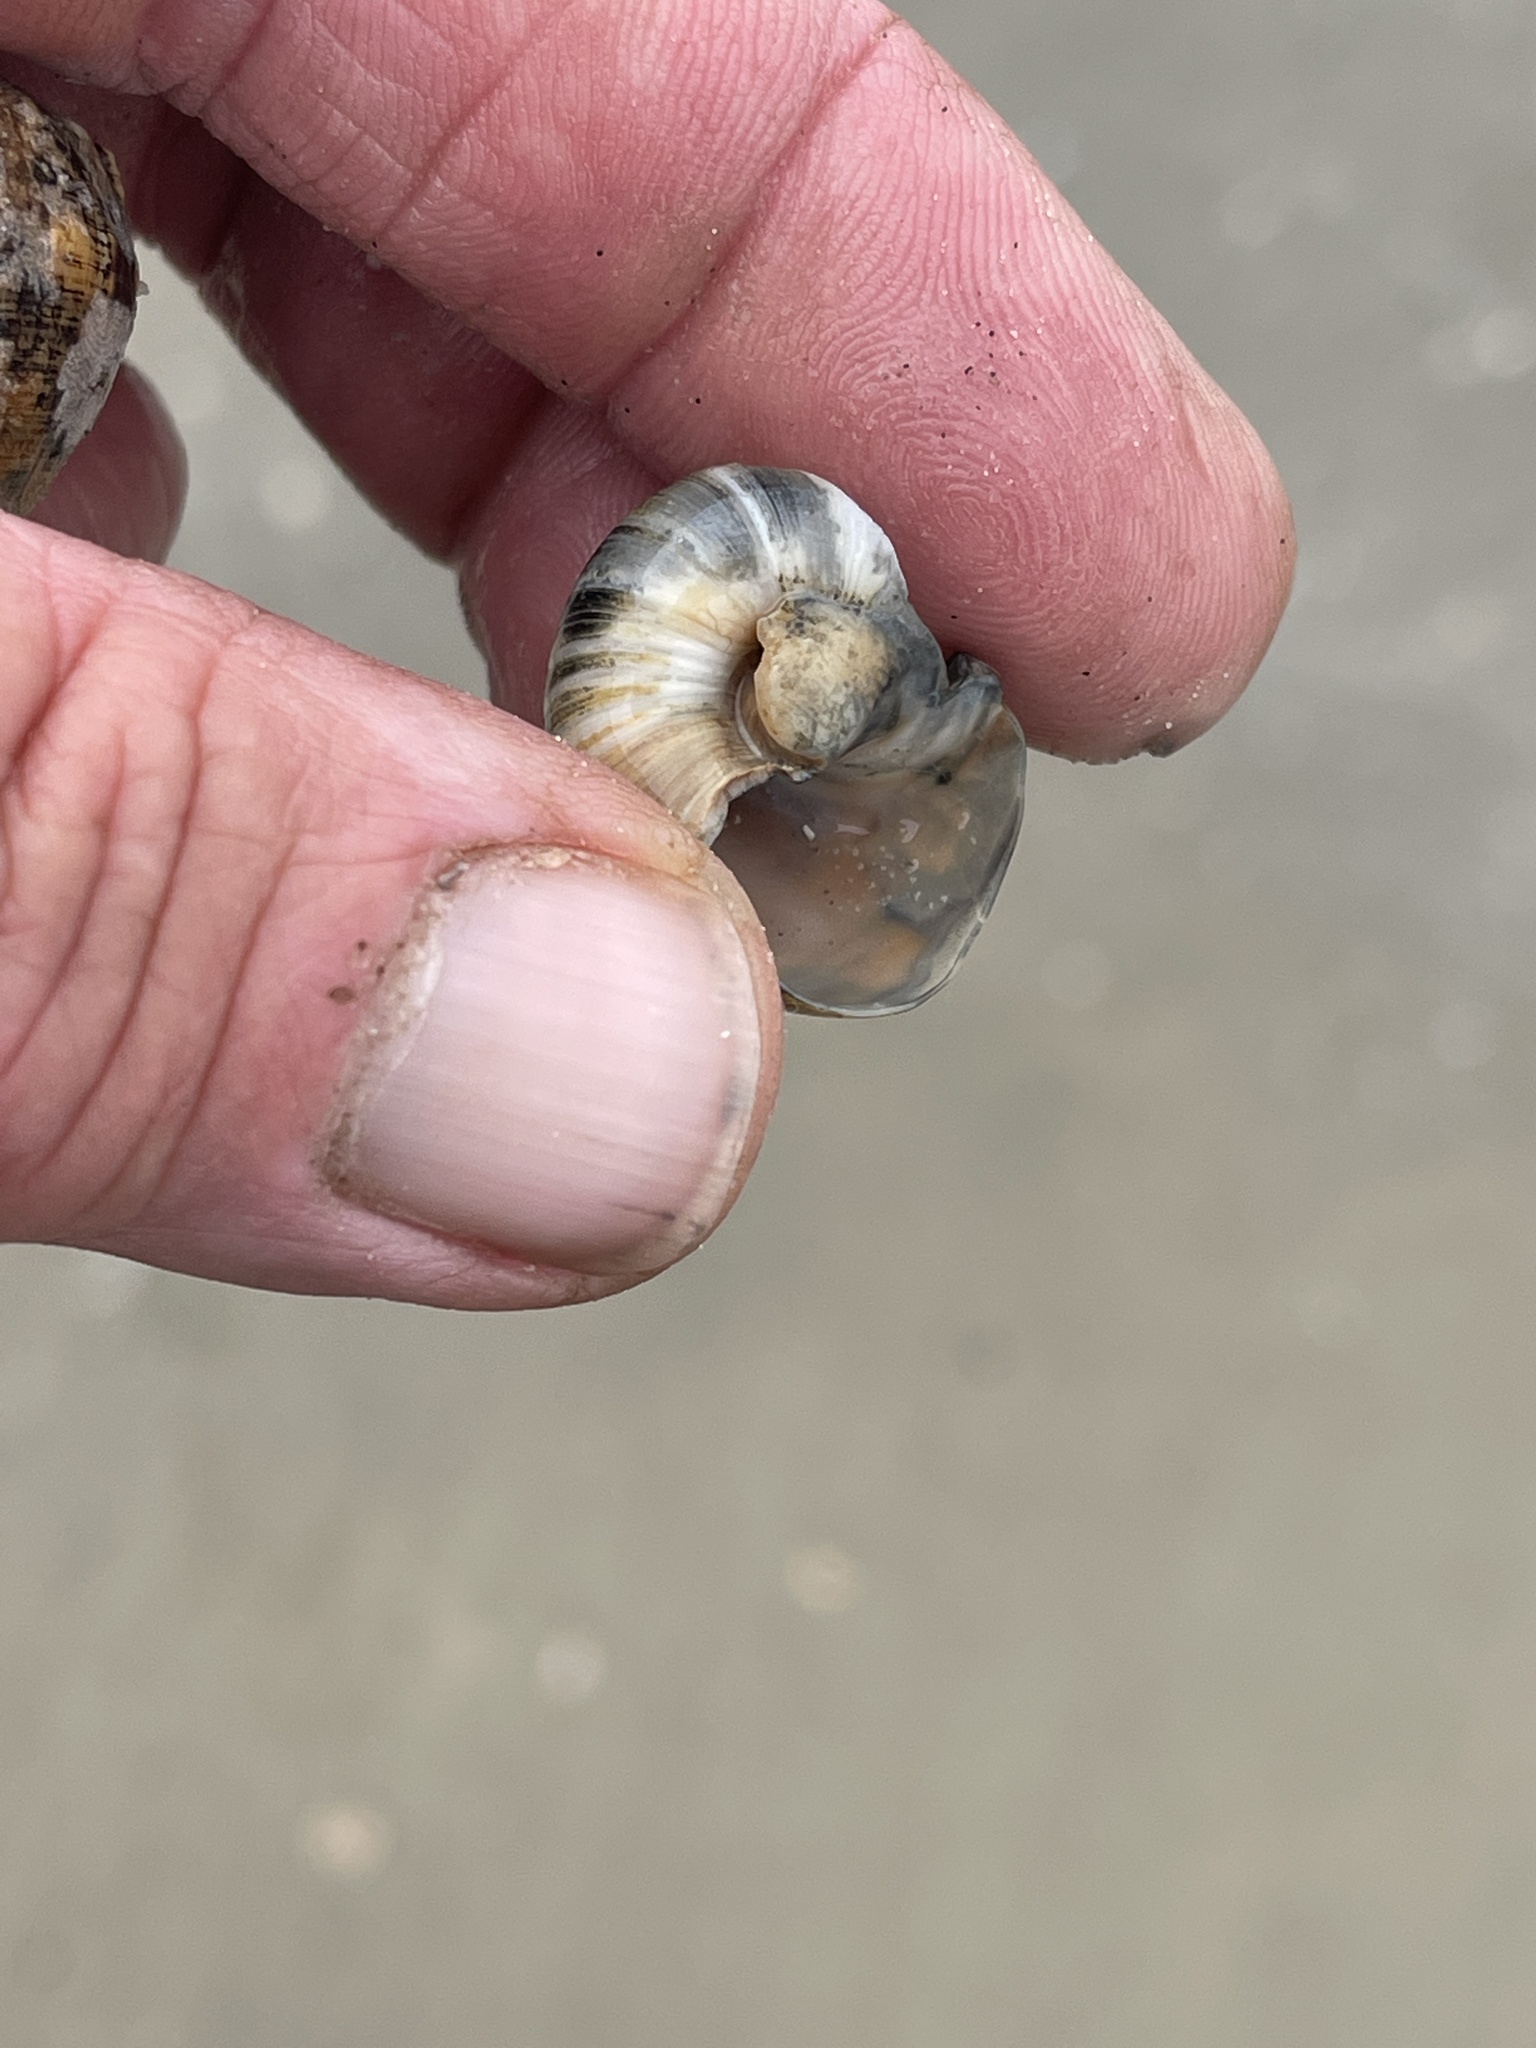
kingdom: Animalia
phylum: Mollusca
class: Gastropoda
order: Littorinimorpha
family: Naticidae
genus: Neverita
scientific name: Neverita duplicata
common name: Lobed moonsnail
